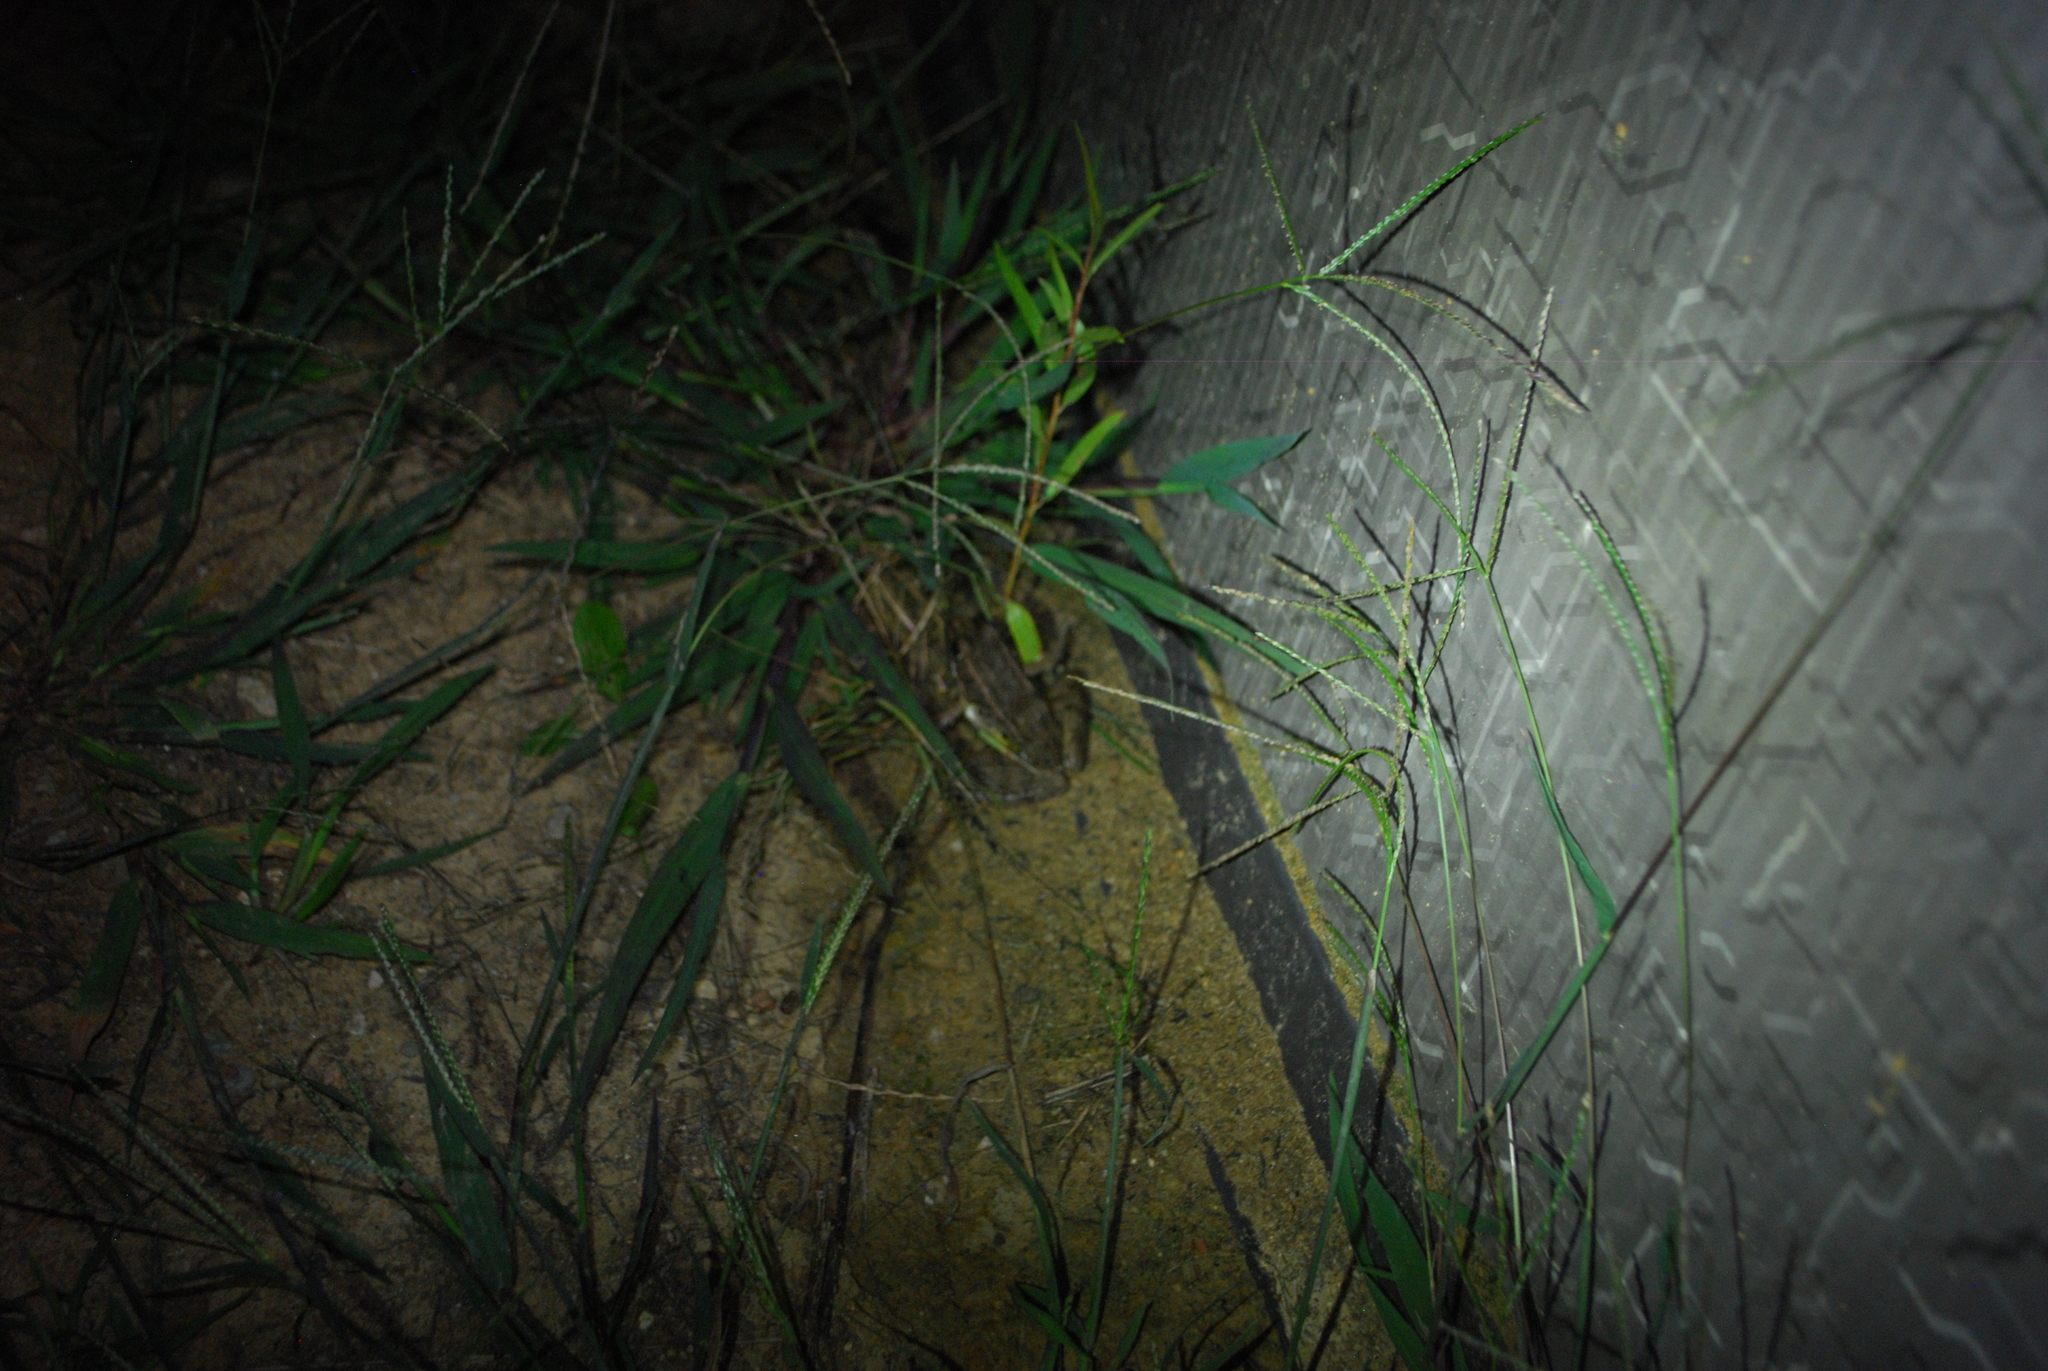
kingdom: Animalia
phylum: Chordata
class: Amphibia
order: Anura
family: Ranidae
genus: Lithobates
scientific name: Lithobates blairi
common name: Plains leopard frog
